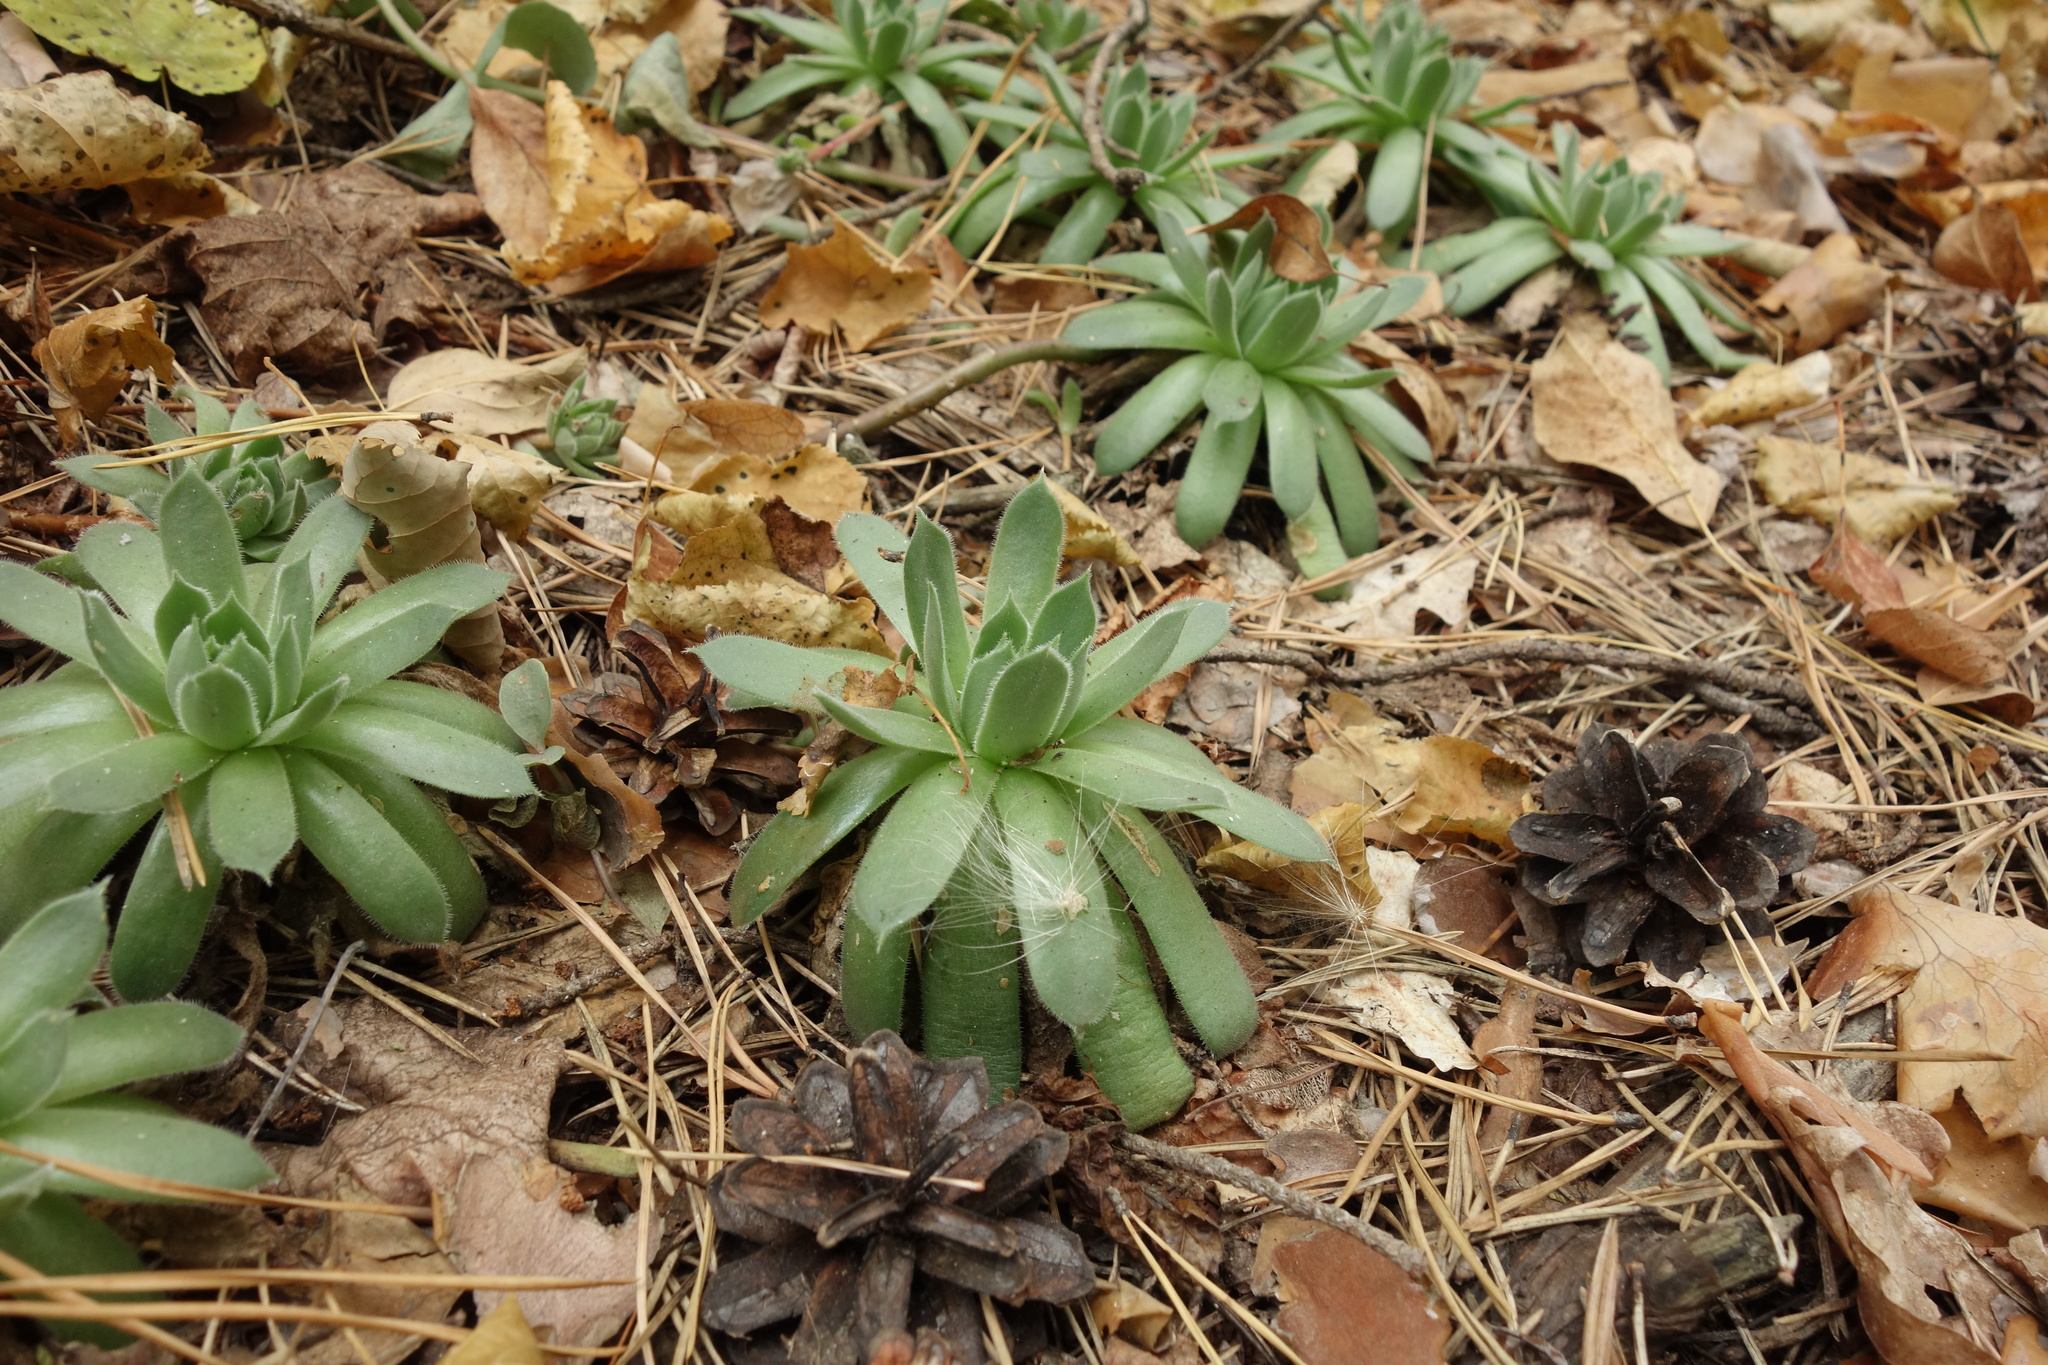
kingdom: Plantae
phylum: Tracheophyta
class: Magnoliopsida
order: Saxifragales
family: Crassulaceae
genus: Sempervivum
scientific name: Sempervivum ruthenicum
